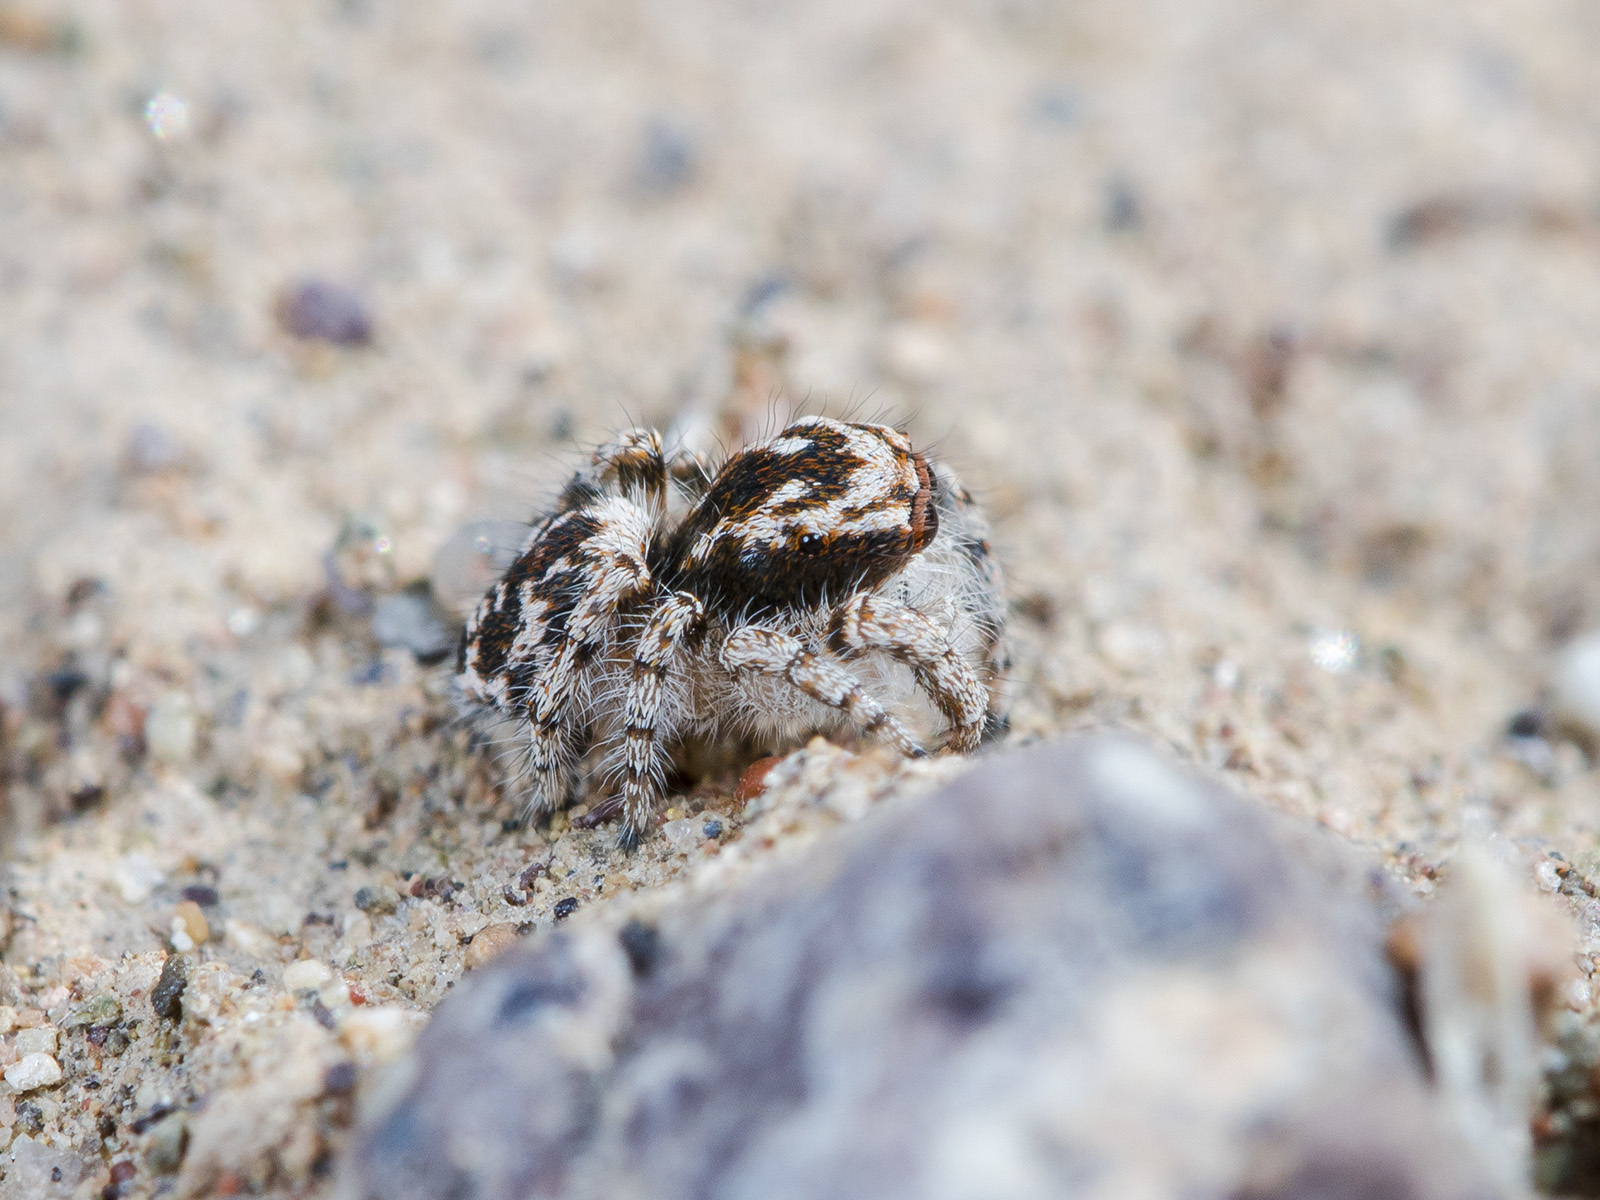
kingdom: Animalia
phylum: Arthropoda
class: Arachnida
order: Araneae
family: Salticidae
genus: Pseudomogrus
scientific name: Pseudomogrus dalaensis
